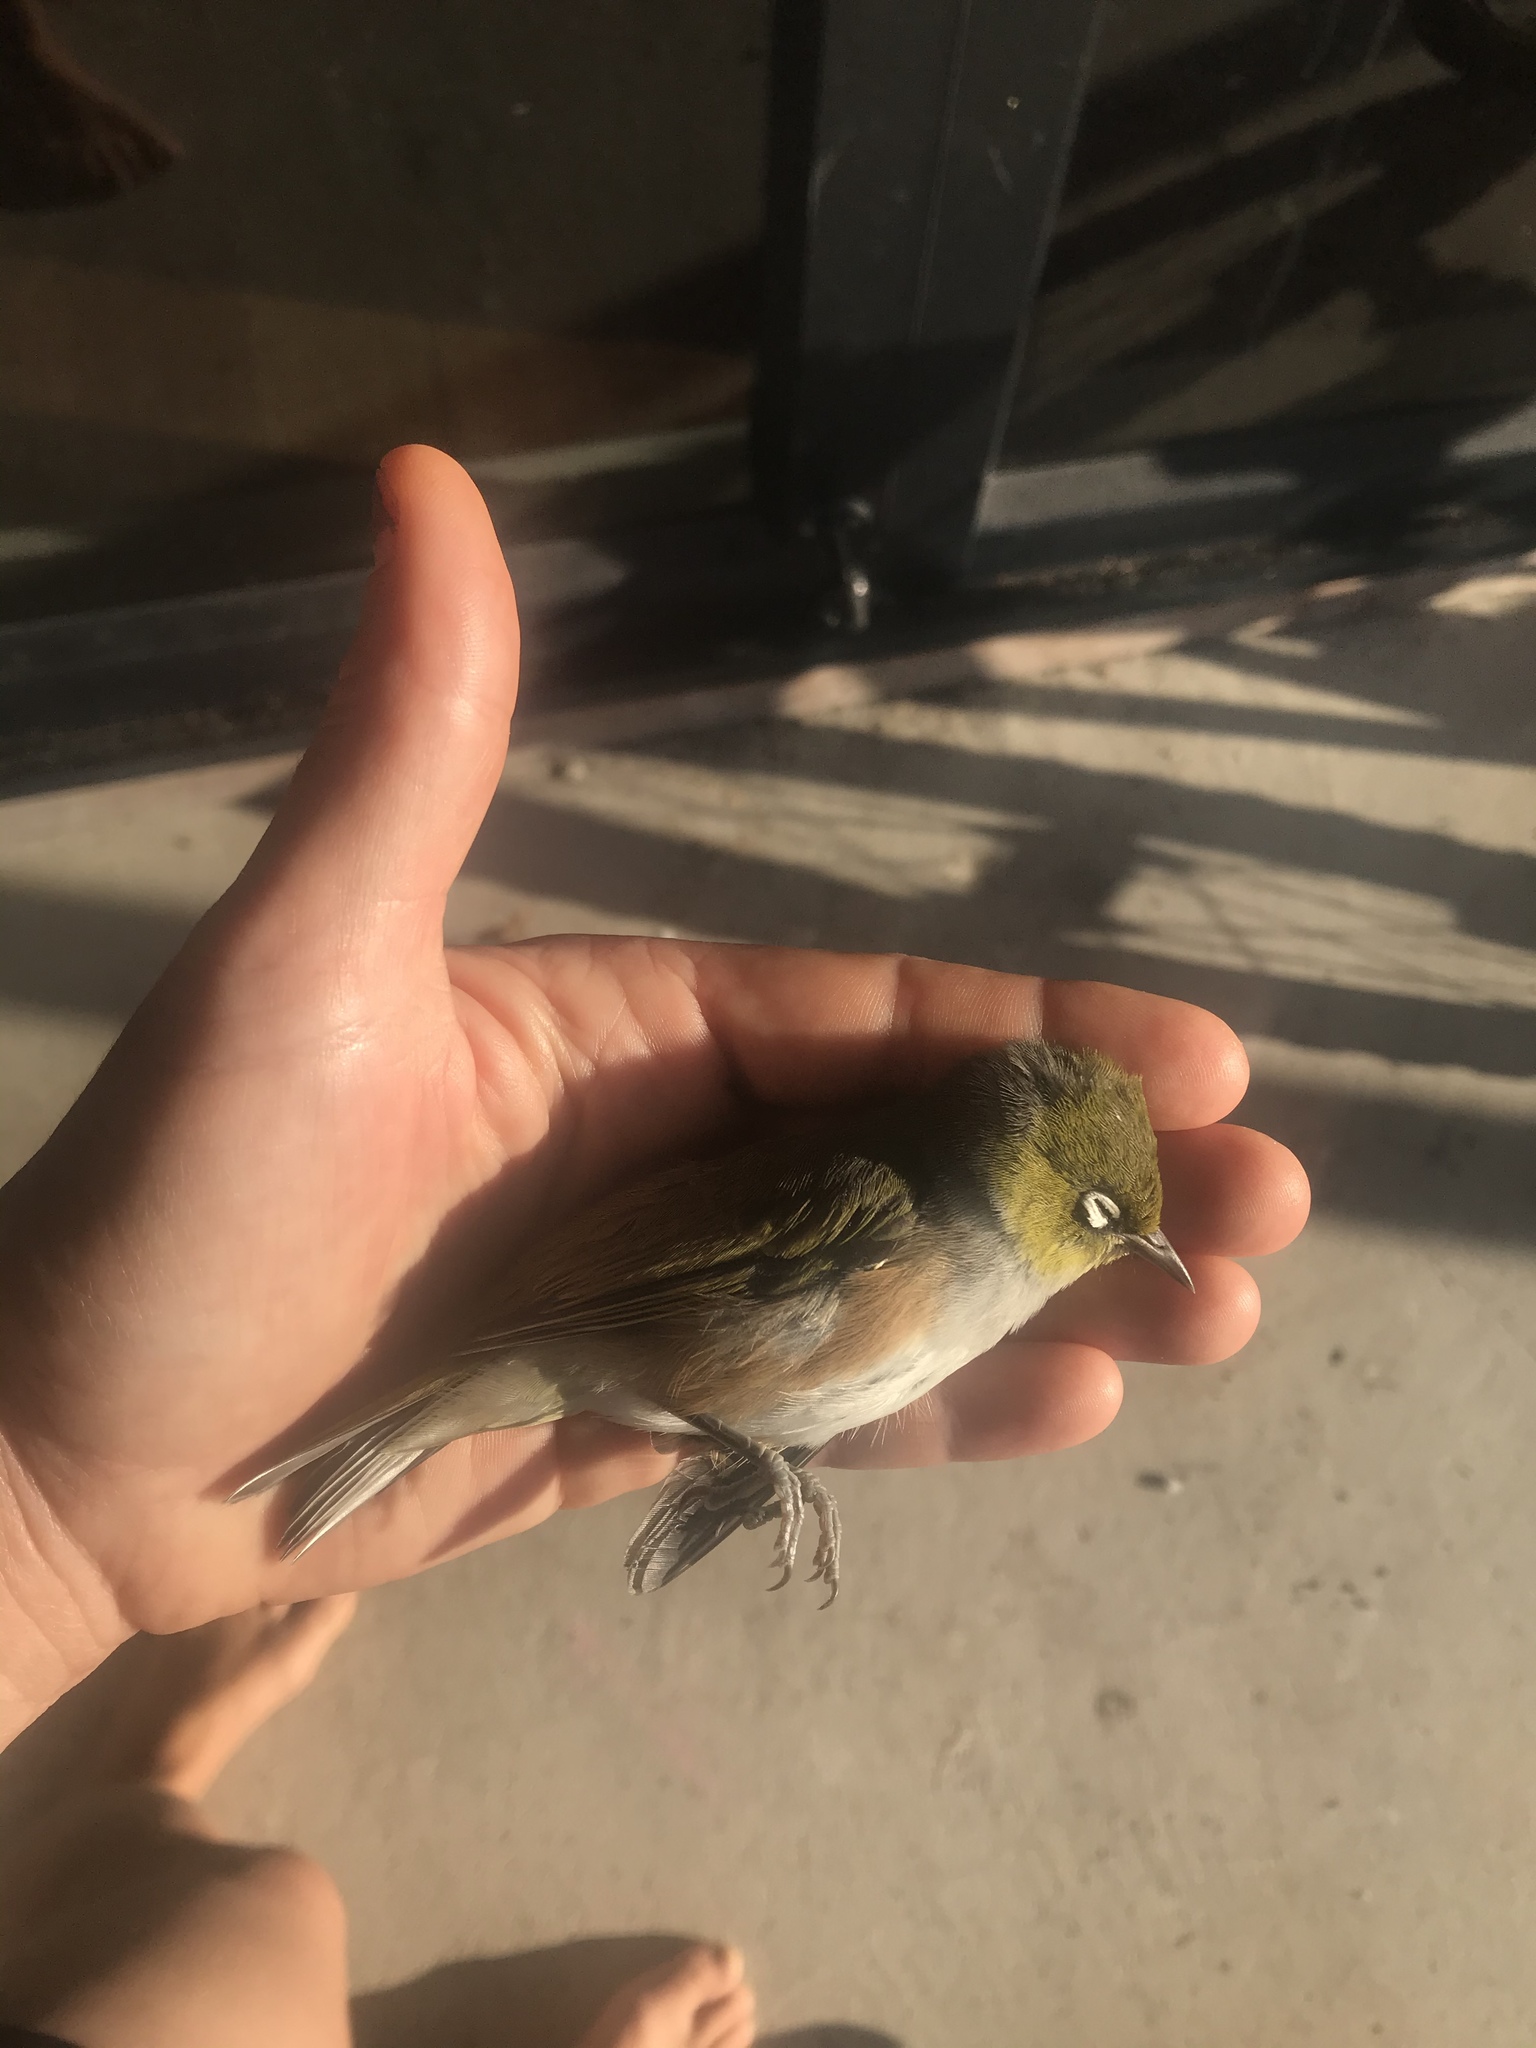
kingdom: Animalia
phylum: Chordata
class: Aves
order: Passeriformes
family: Zosteropidae
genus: Zosterops
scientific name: Zosterops lateralis
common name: Silvereye
